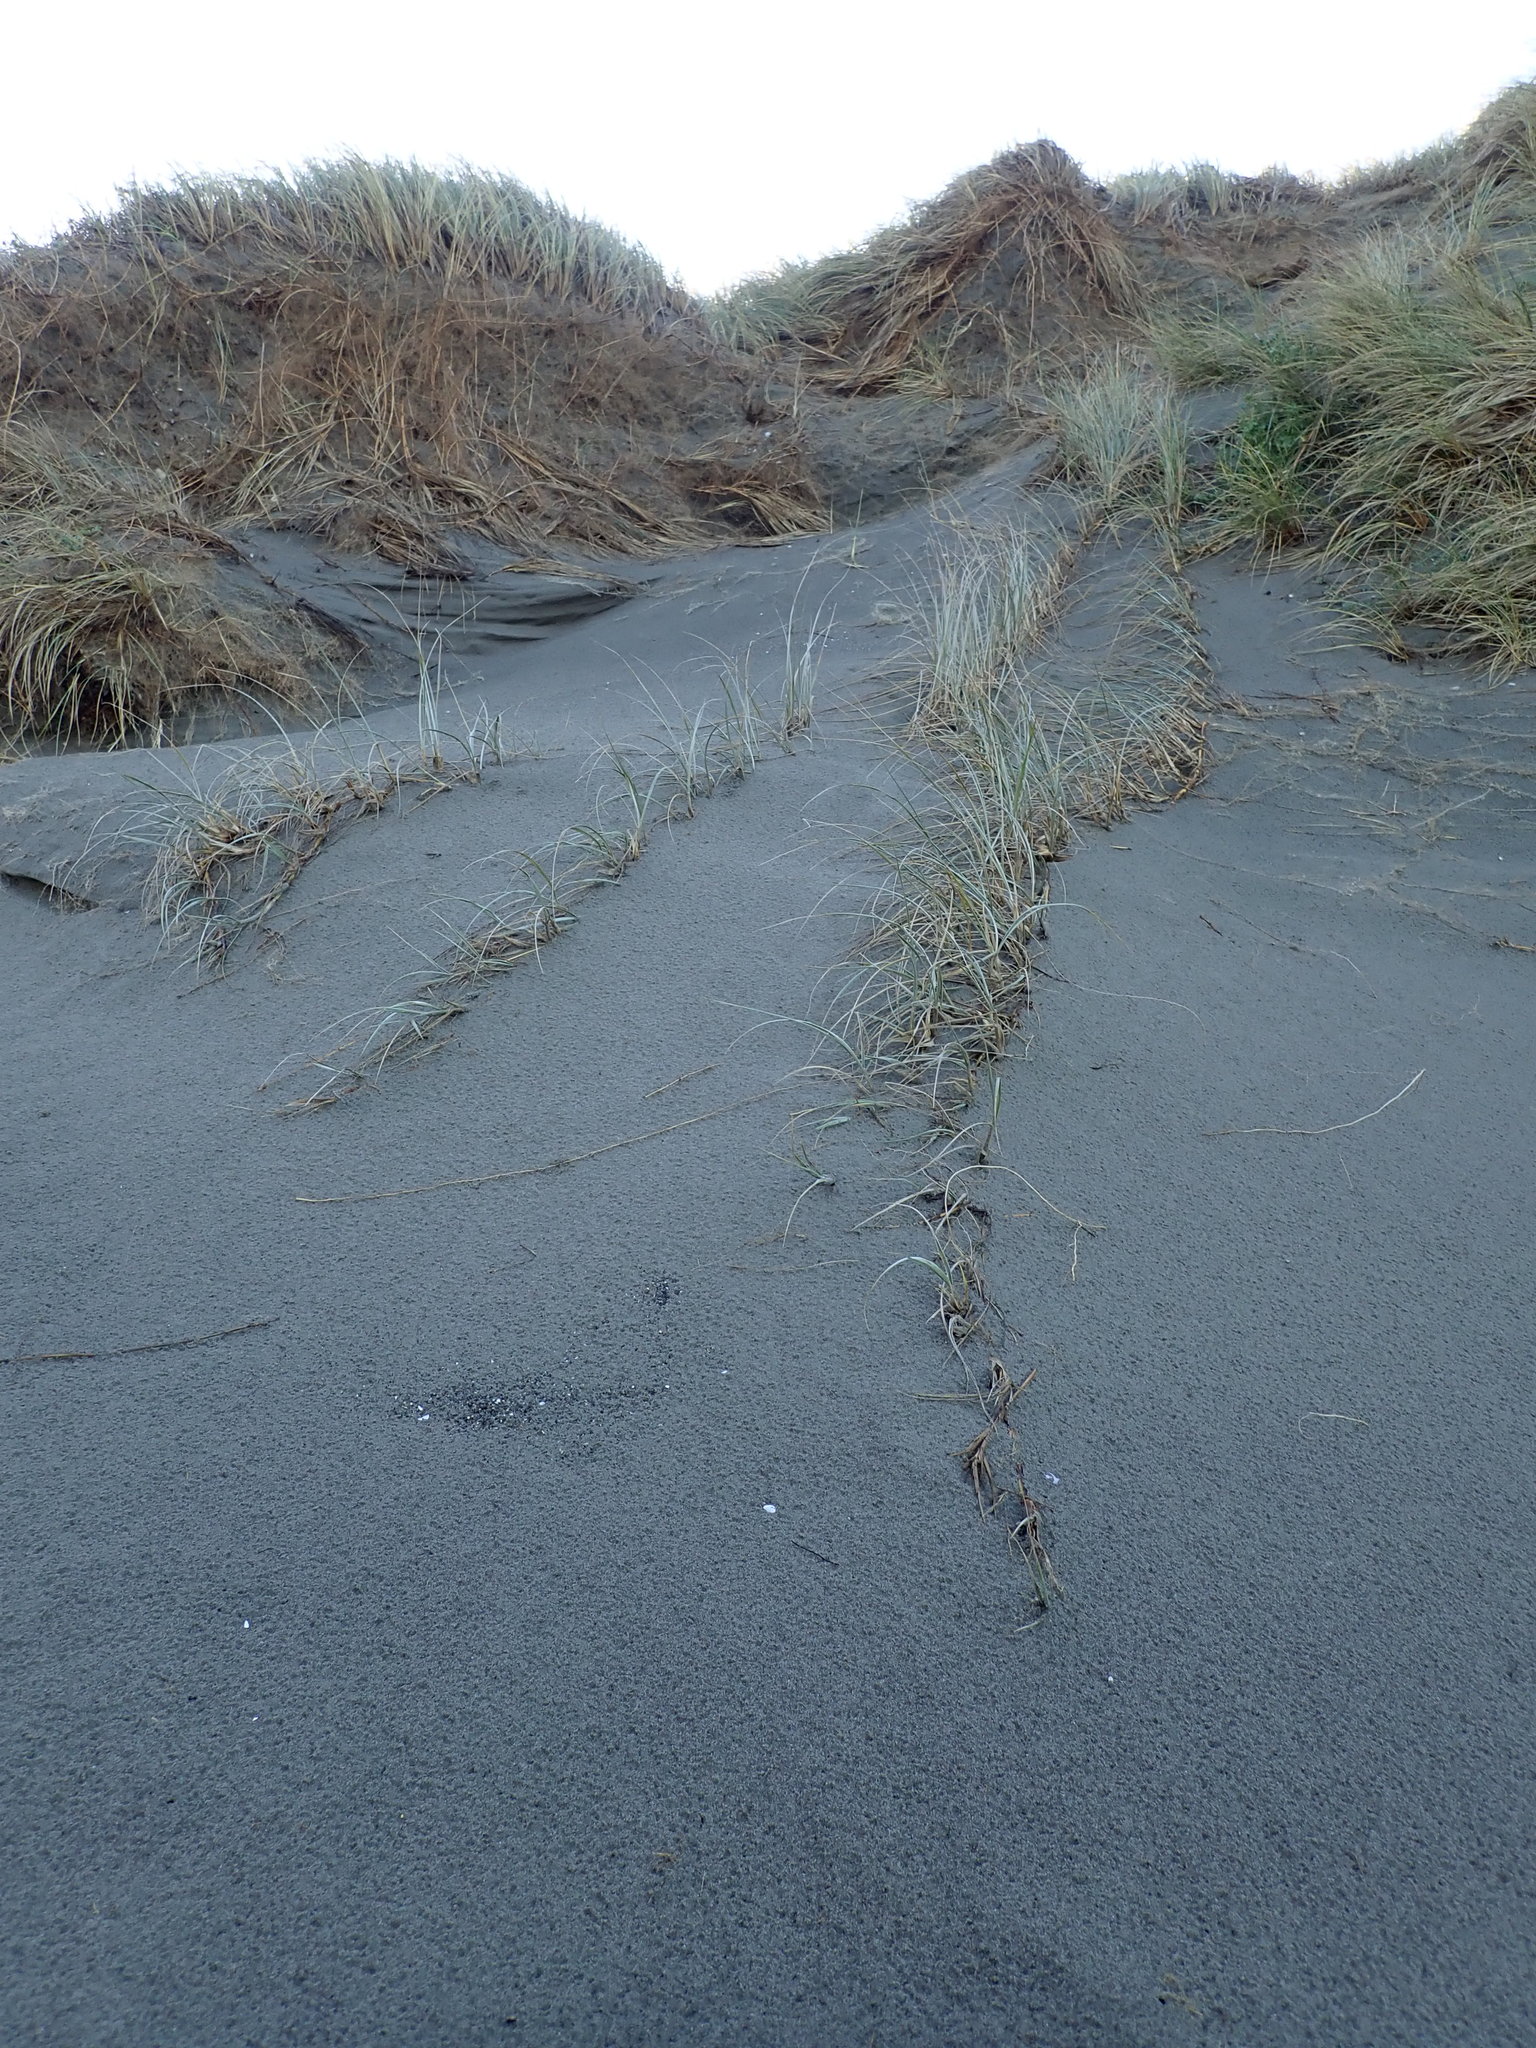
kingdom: Plantae
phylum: Tracheophyta
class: Liliopsida
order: Poales
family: Poaceae
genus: Spinifex
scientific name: Spinifex sericeus
